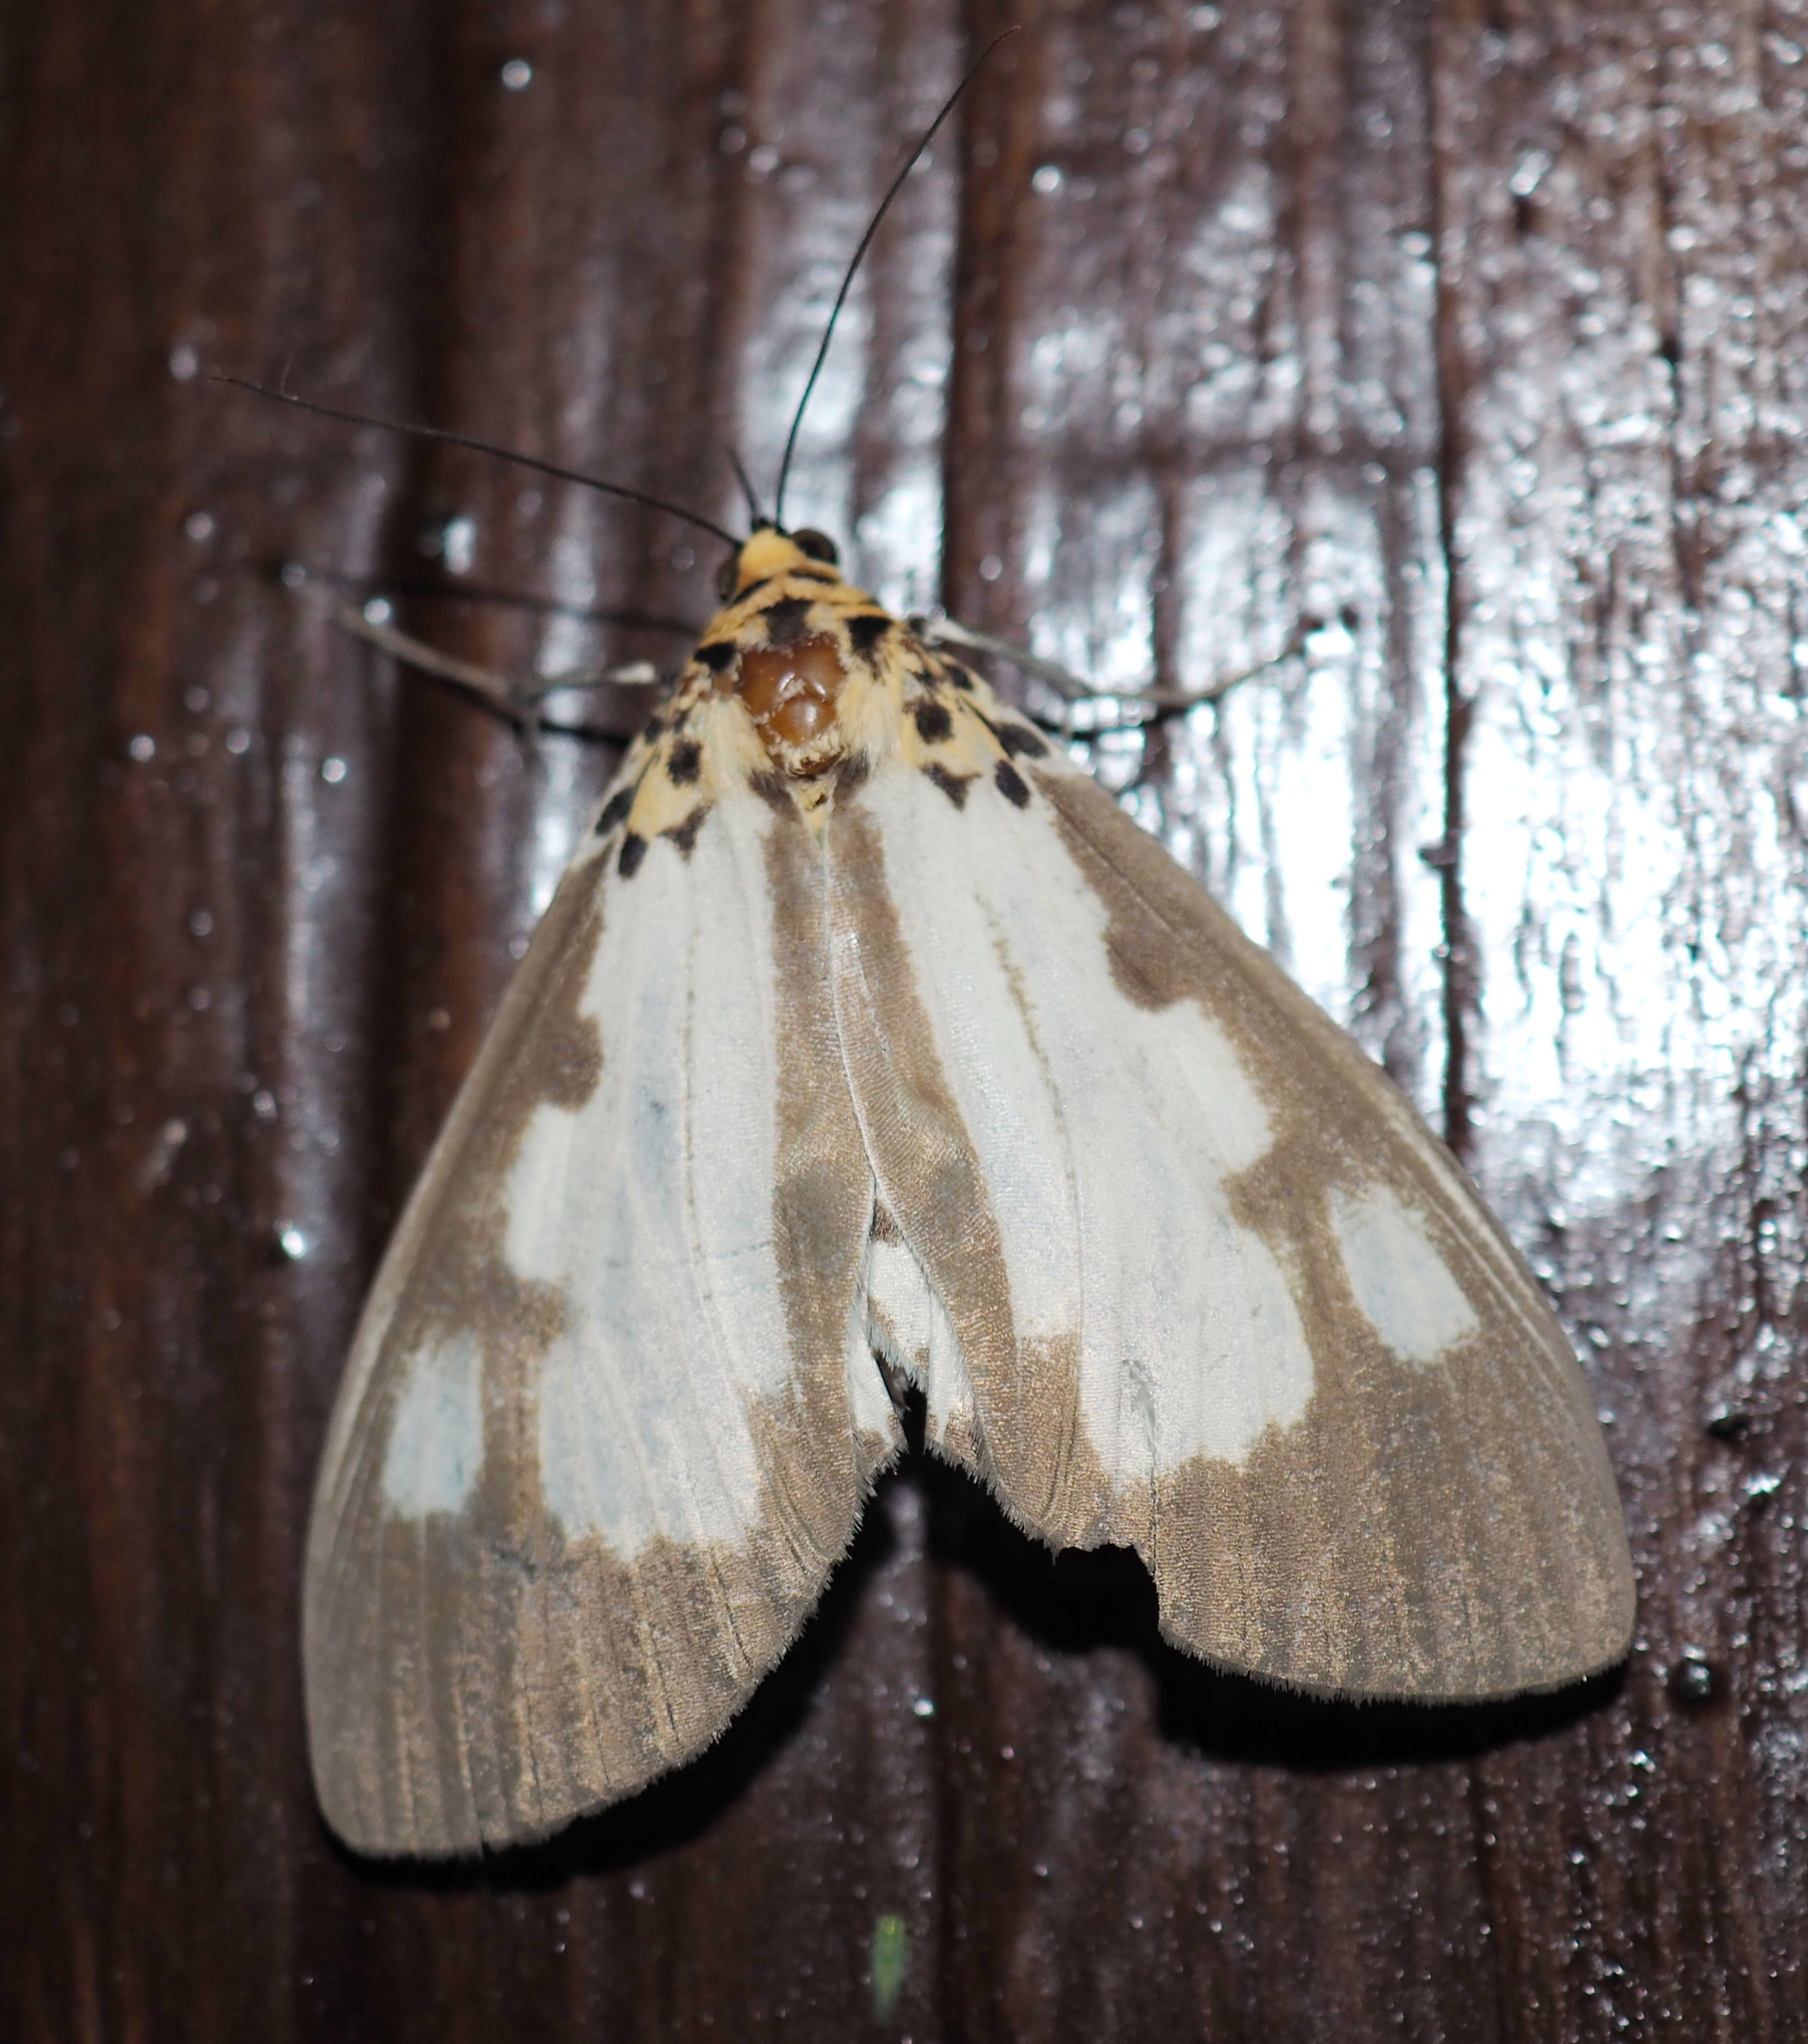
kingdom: Animalia
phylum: Arthropoda
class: Insecta
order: Lepidoptera
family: Erebidae
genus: Asota
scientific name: Asota plana
